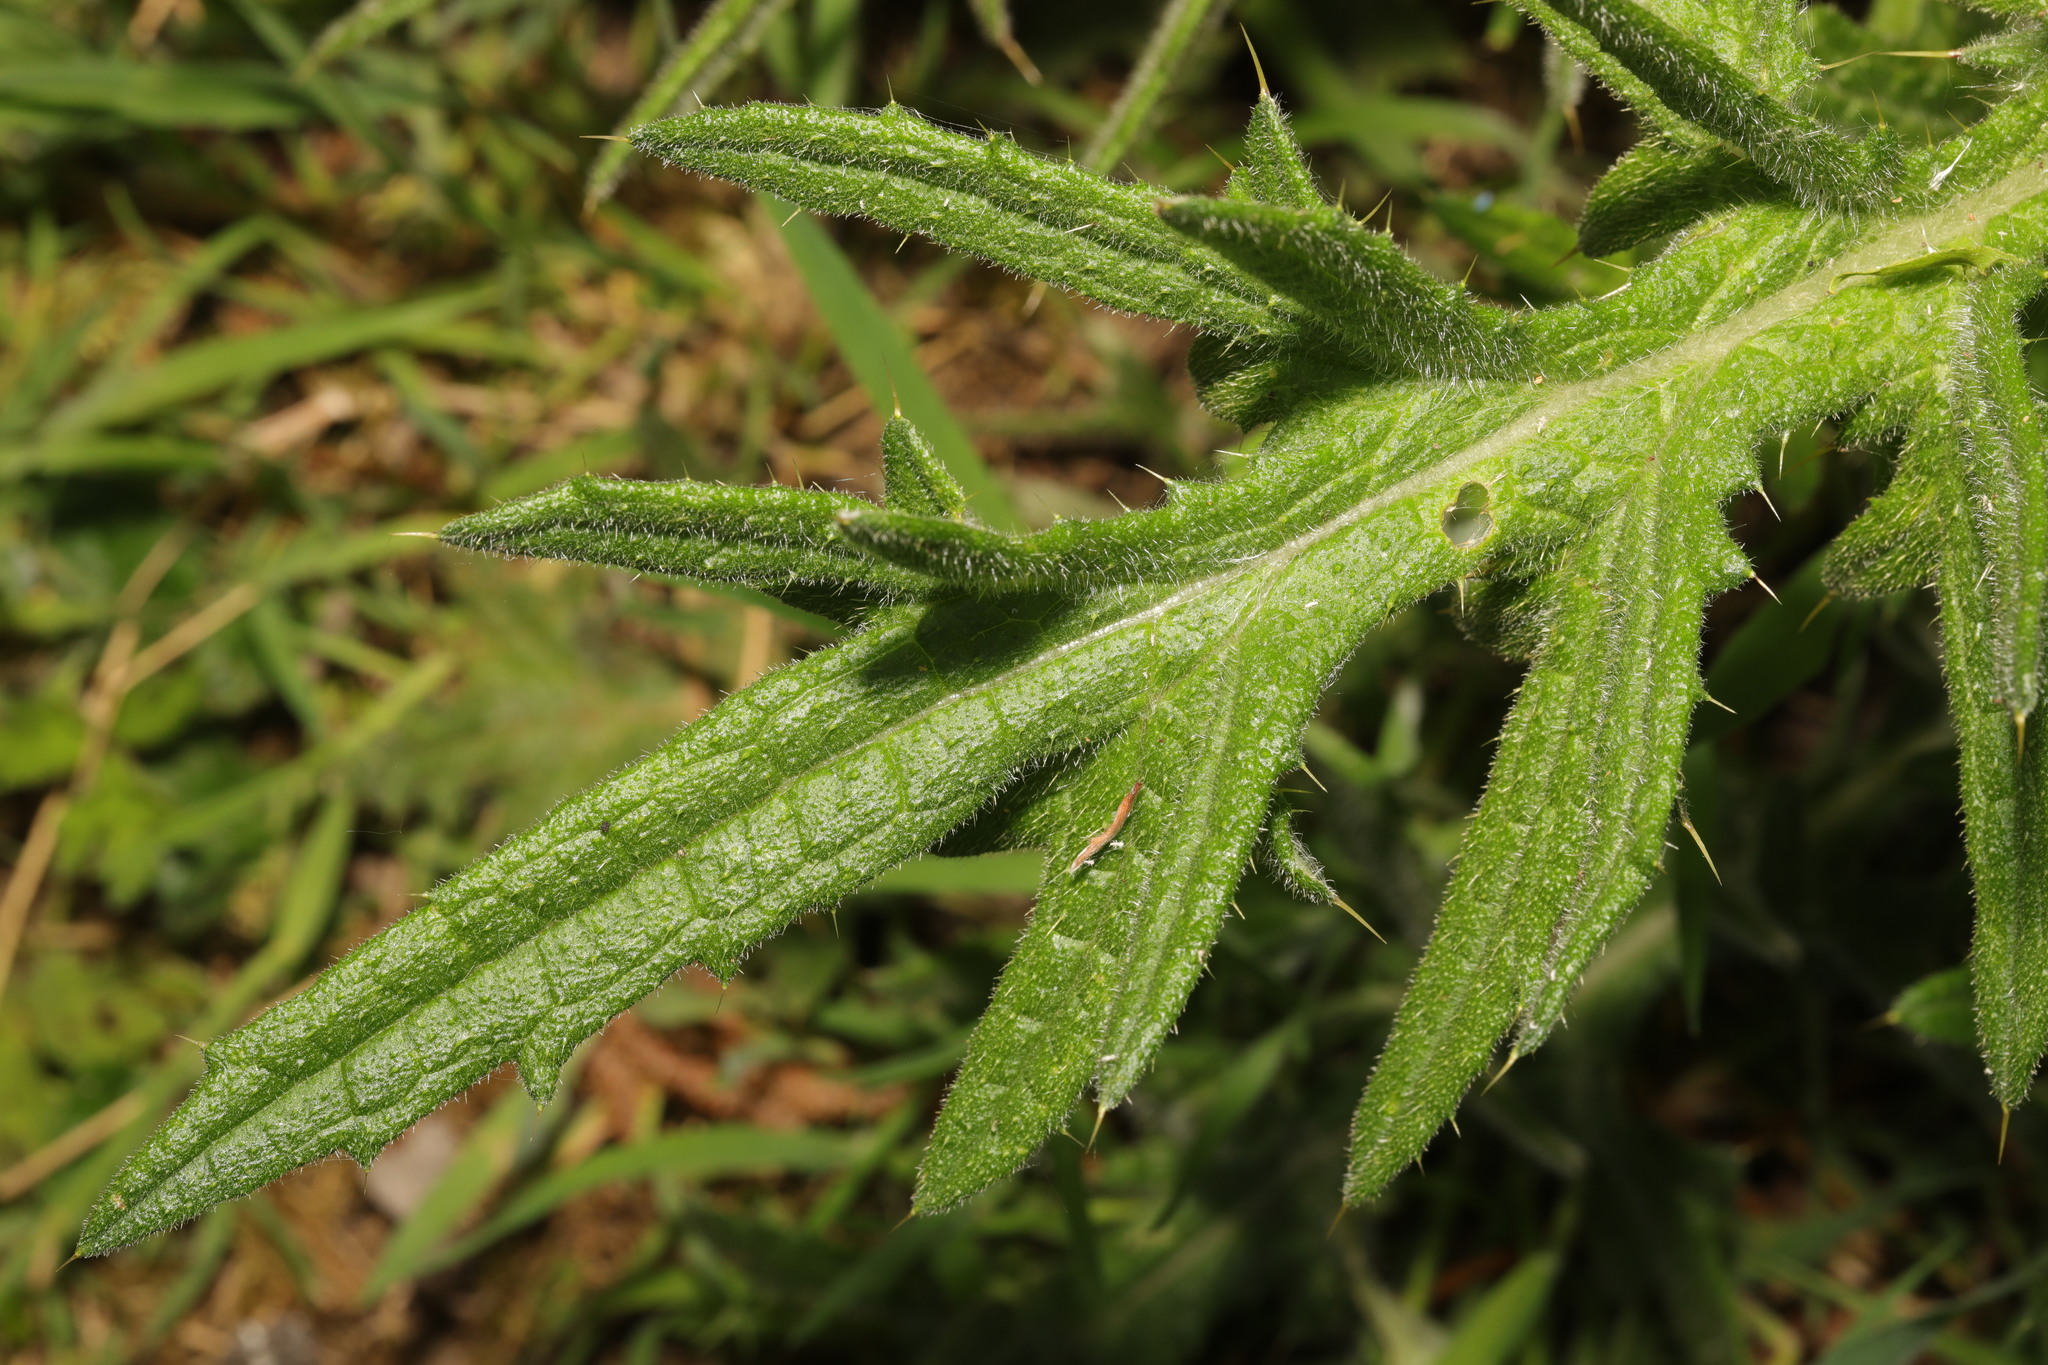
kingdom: Plantae
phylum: Tracheophyta
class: Magnoliopsida
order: Asterales
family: Asteraceae
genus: Cirsium
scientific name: Cirsium vulgare
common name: Bull thistle
